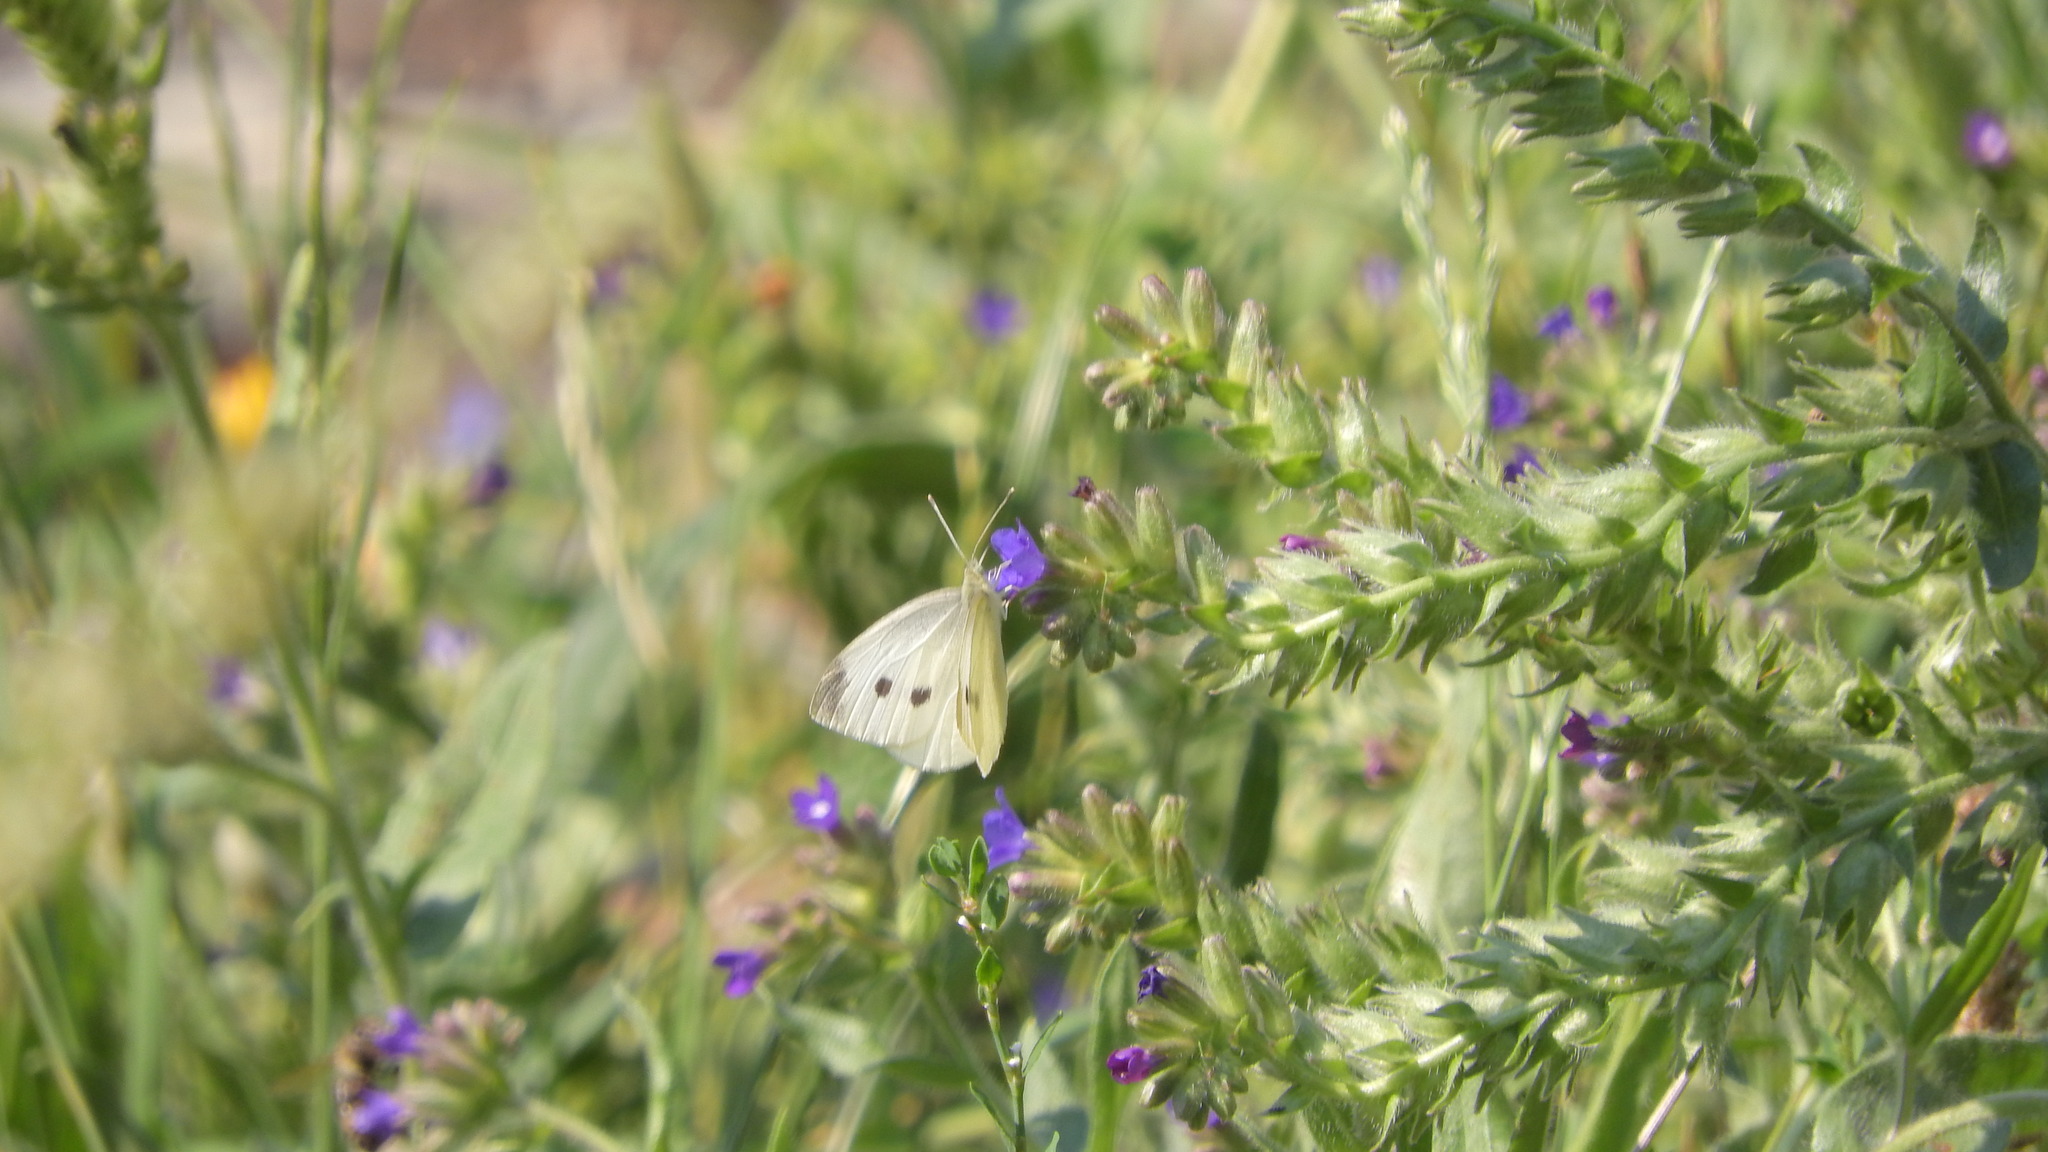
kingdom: Animalia
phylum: Arthropoda
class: Insecta
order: Lepidoptera
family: Pieridae
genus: Pieris
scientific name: Pieris rapae
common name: Small white
